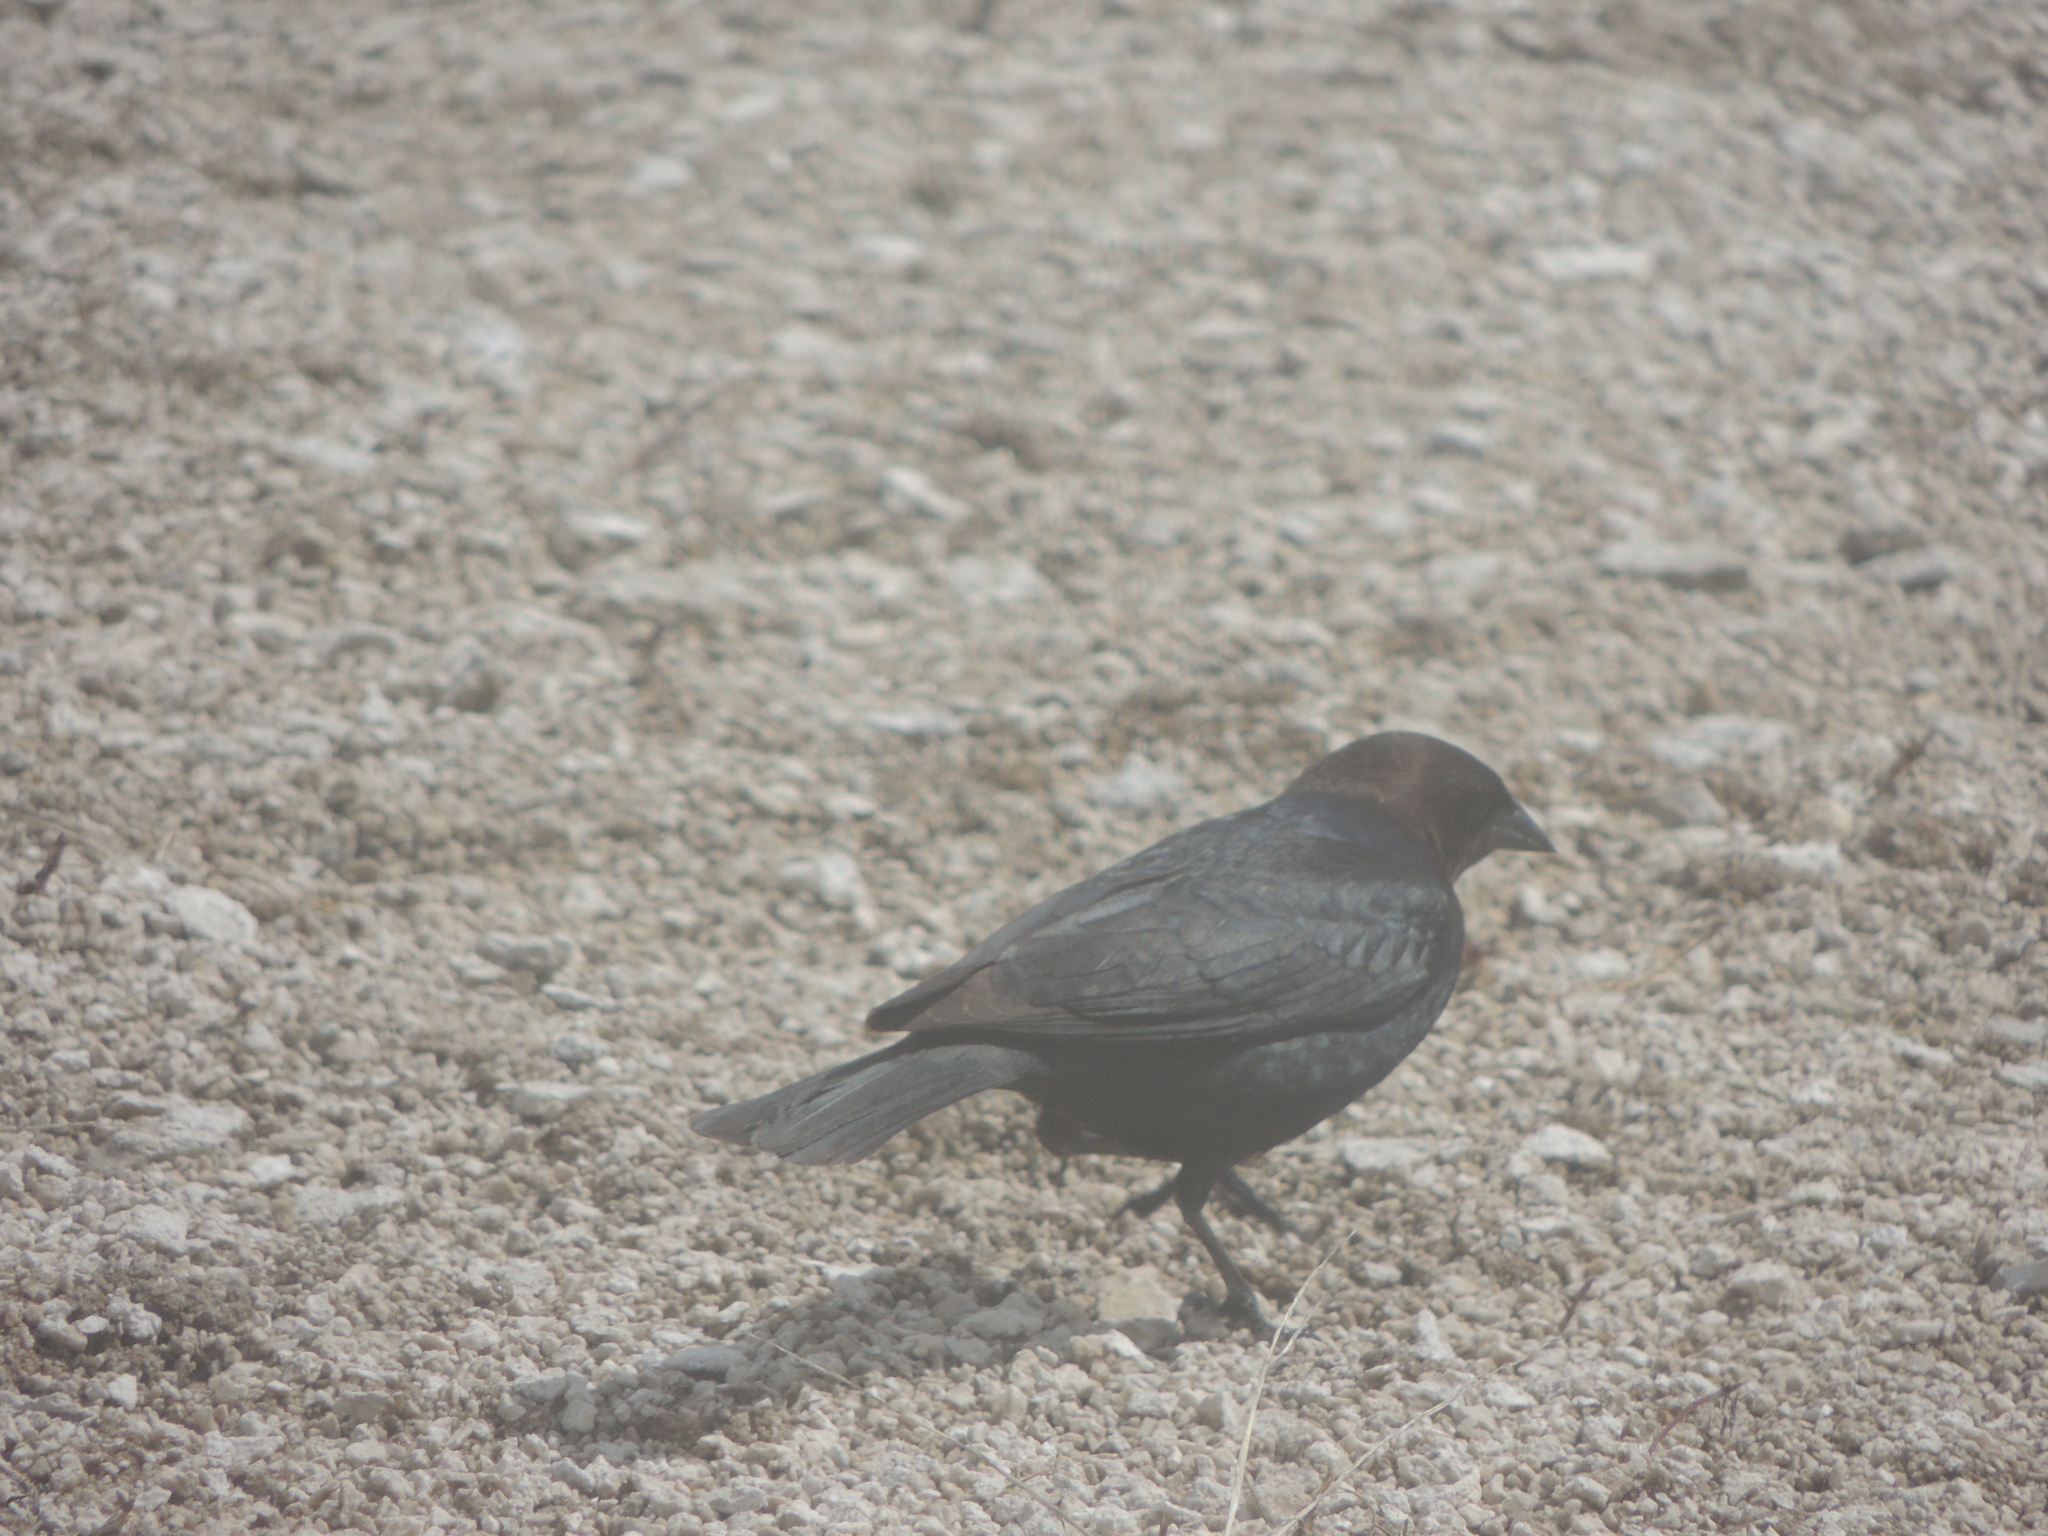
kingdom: Animalia
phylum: Chordata
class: Aves
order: Passeriformes
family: Icteridae
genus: Molothrus
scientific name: Molothrus ater
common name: Brown-headed cowbird
